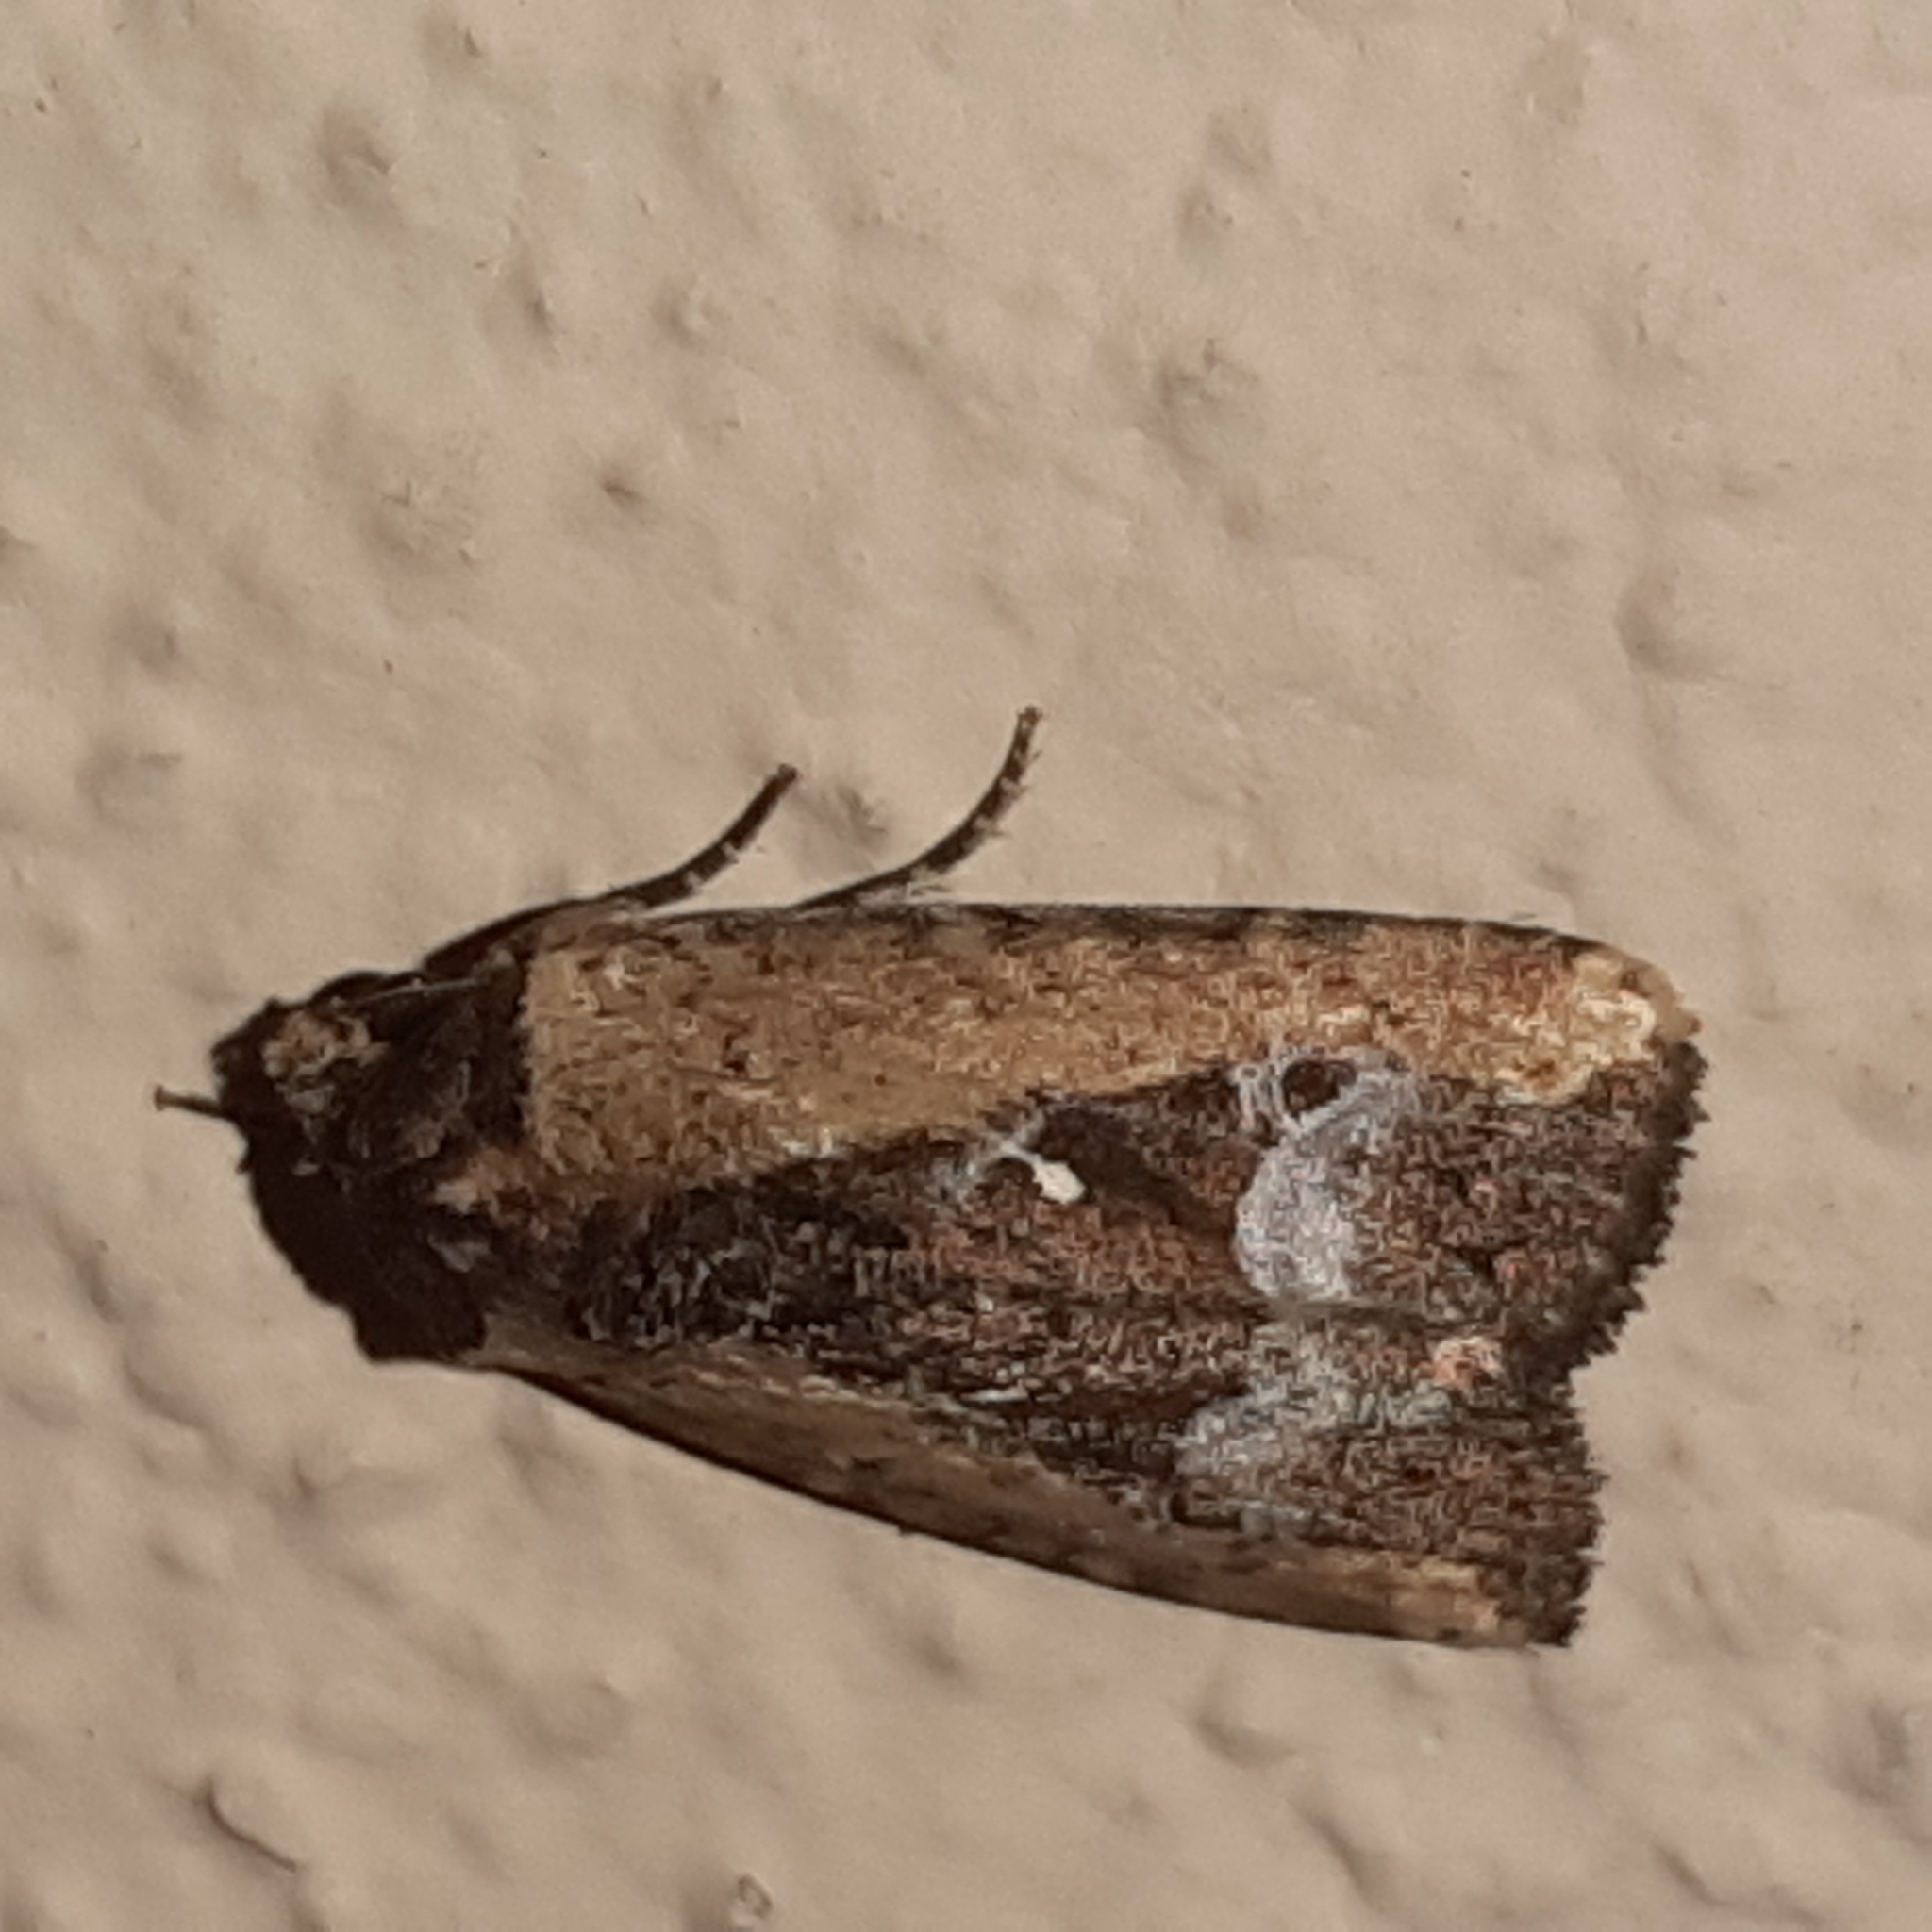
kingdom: Animalia
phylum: Arthropoda
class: Insecta
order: Lepidoptera
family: Noctuidae
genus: Elaphria
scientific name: Elaphria subobliqua
